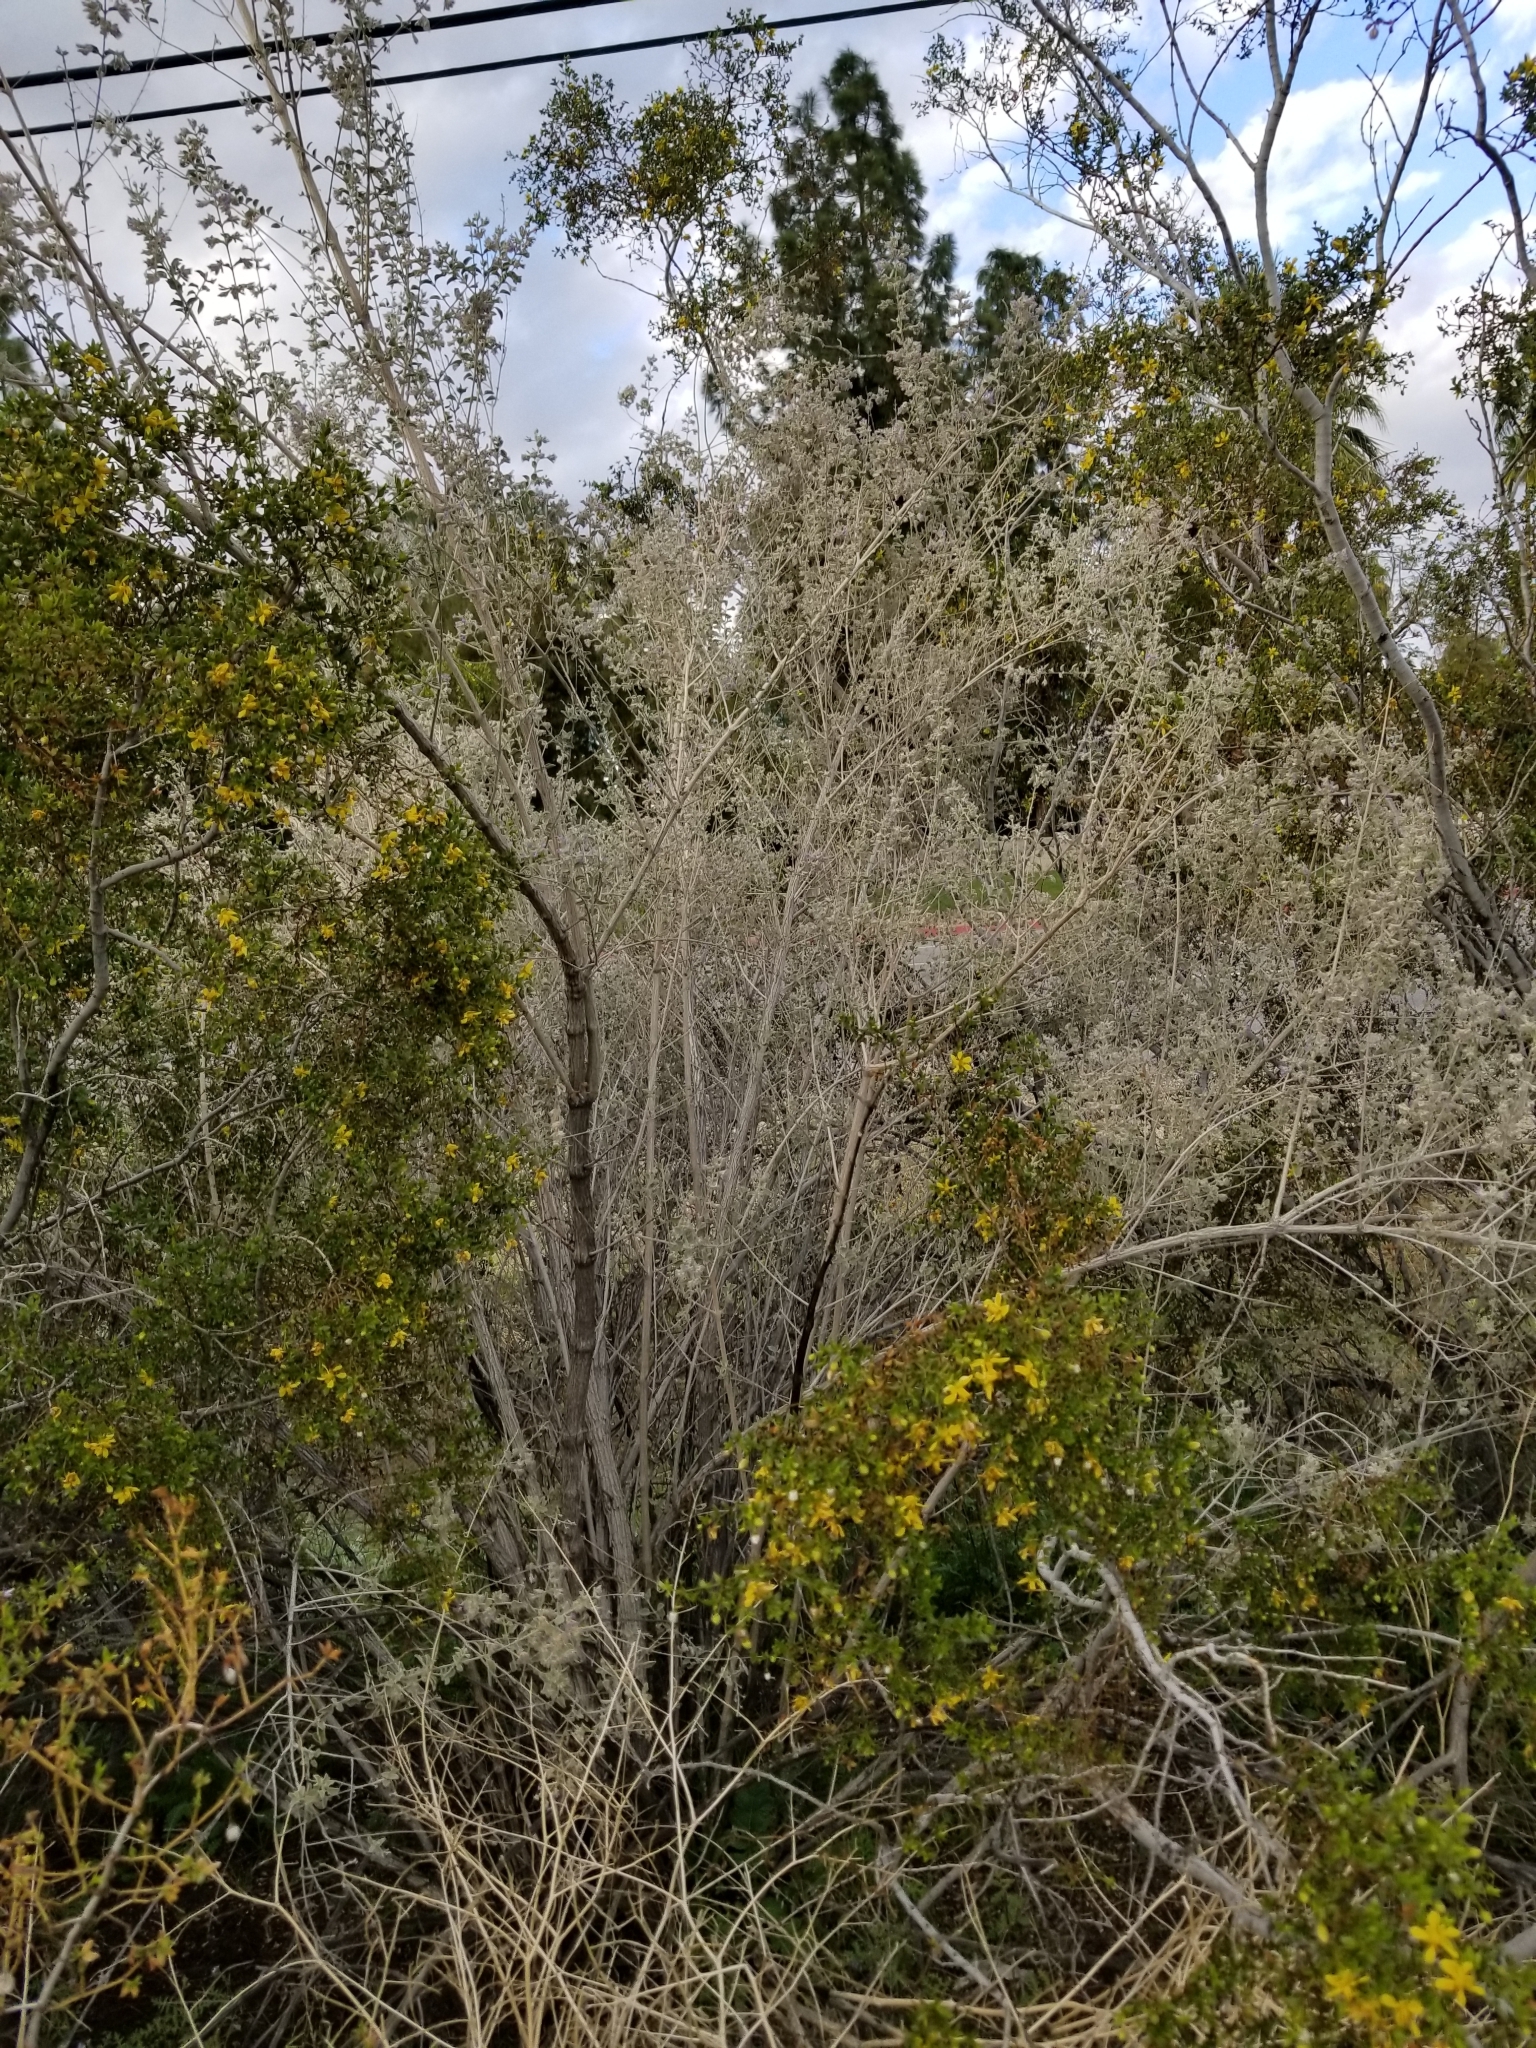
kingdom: Plantae
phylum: Tracheophyta
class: Magnoliopsida
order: Lamiales
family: Lamiaceae
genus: Condea
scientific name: Condea emoryi
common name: Chia
